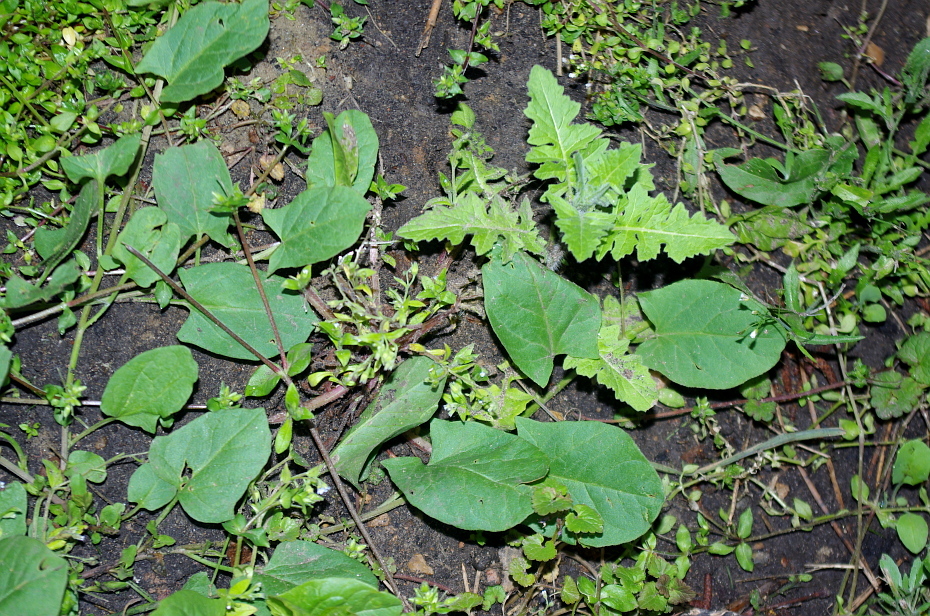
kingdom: Plantae
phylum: Tracheophyta
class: Magnoliopsida
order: Brassicales
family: Brassicaceae
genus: Sisymbrium
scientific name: Sisymbrium loeselii
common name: False london-rocket
